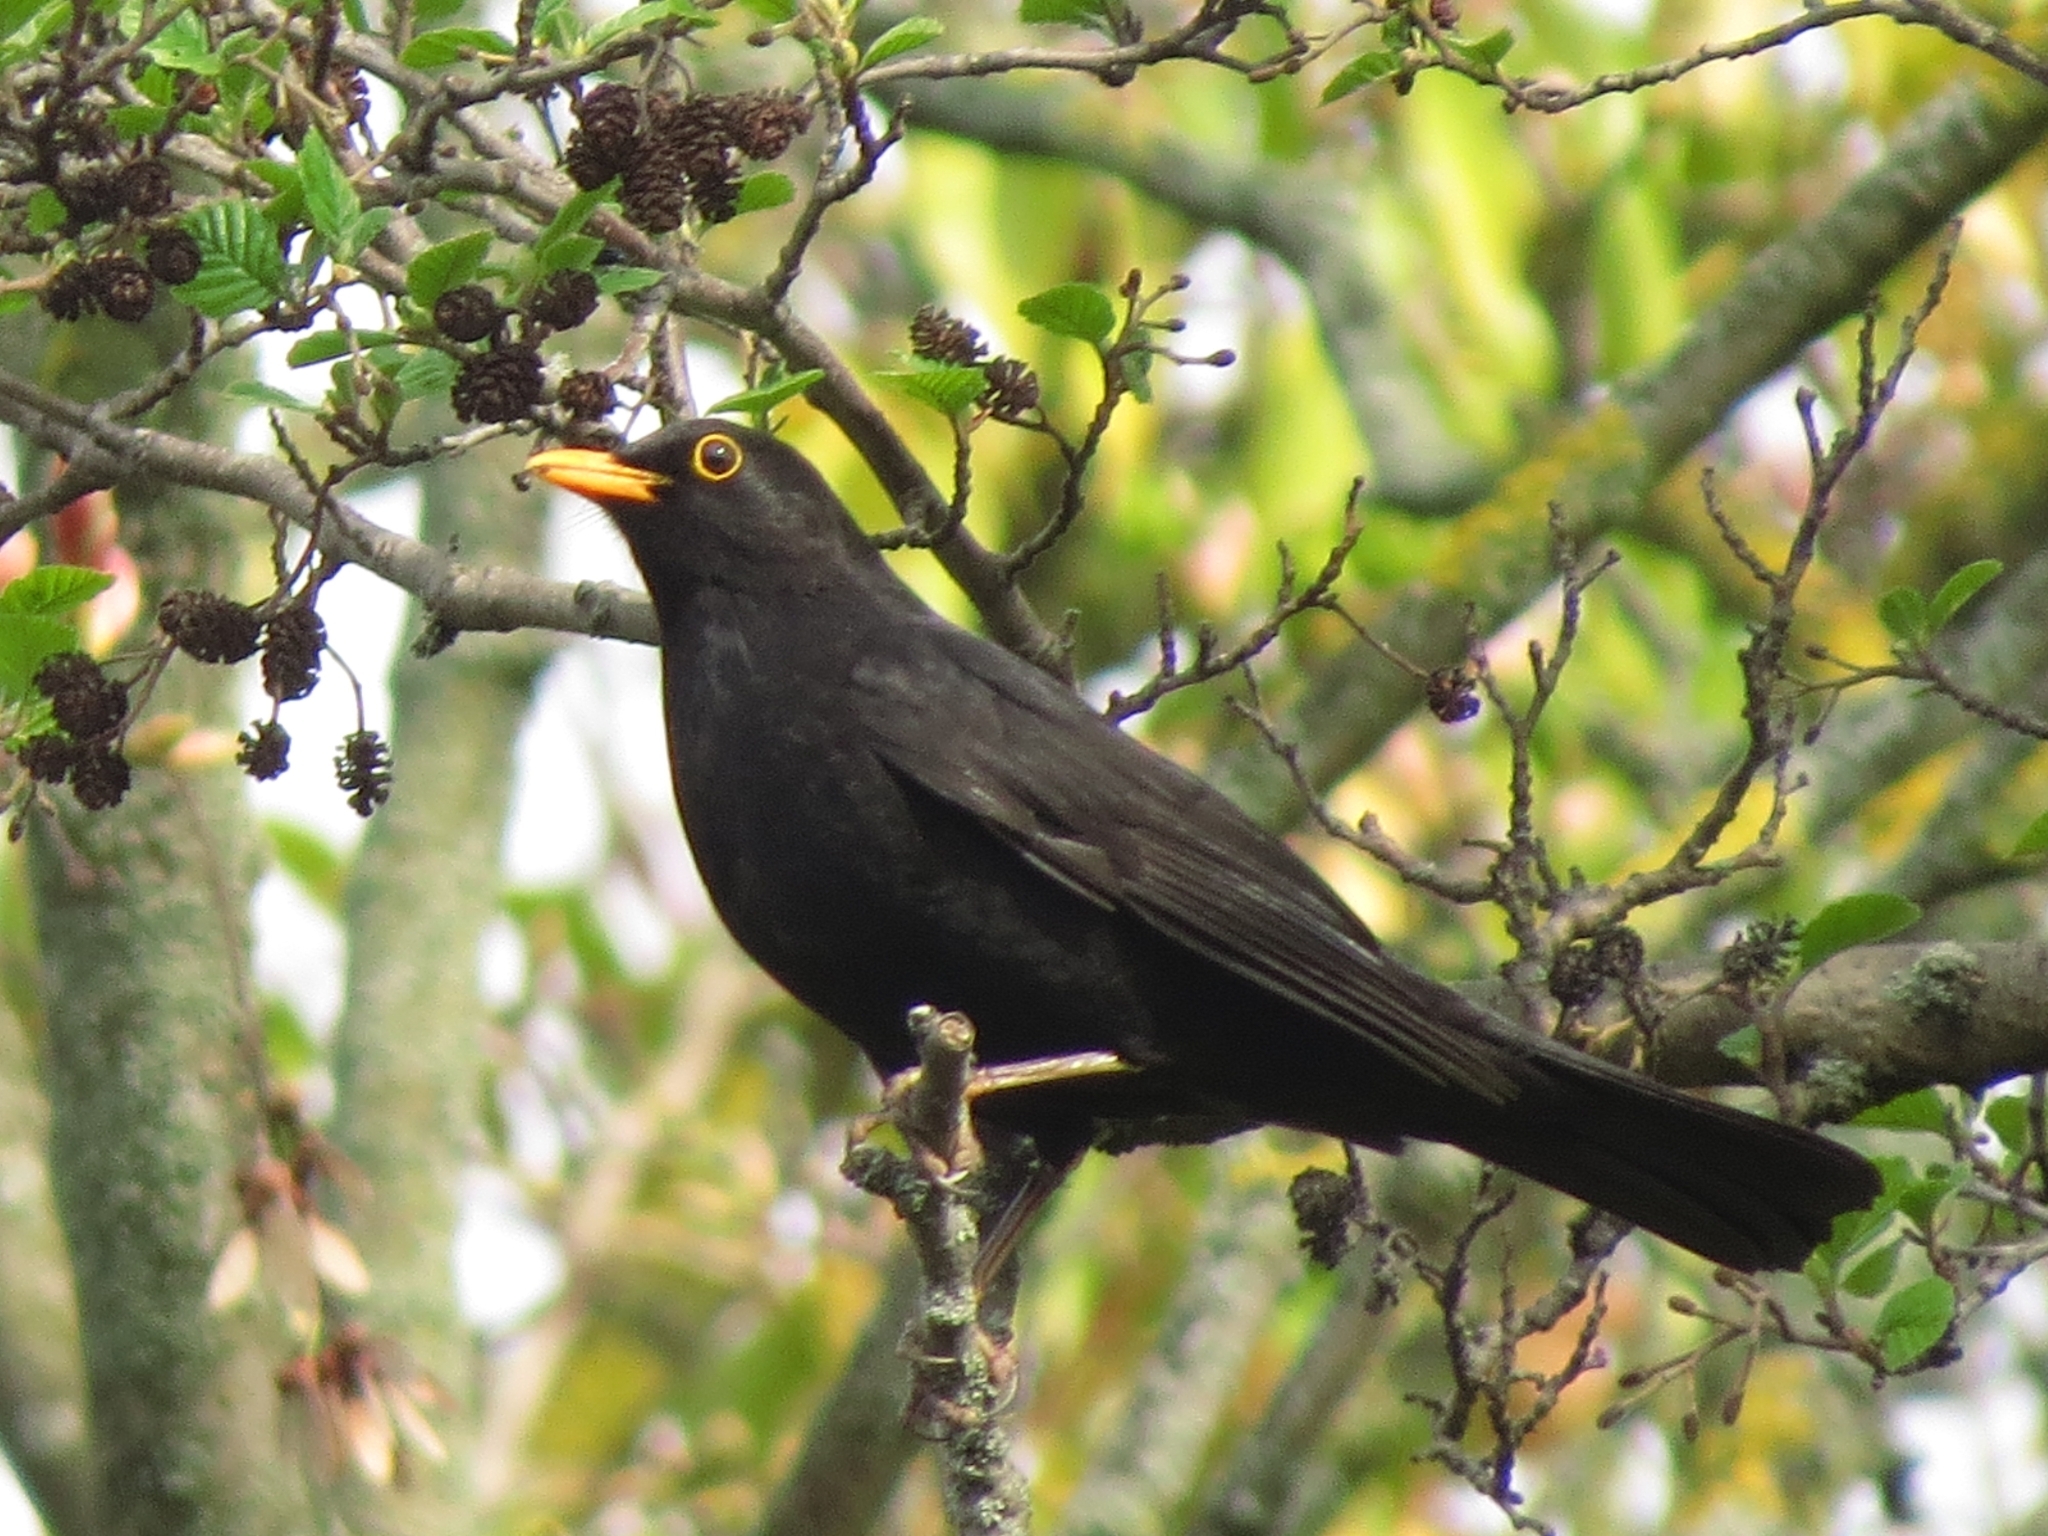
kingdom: Animalia
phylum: Chordata
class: Aves
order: Passeriformes
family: Turdidae
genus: Turdus
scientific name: Turdus merula
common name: Common blackbird
